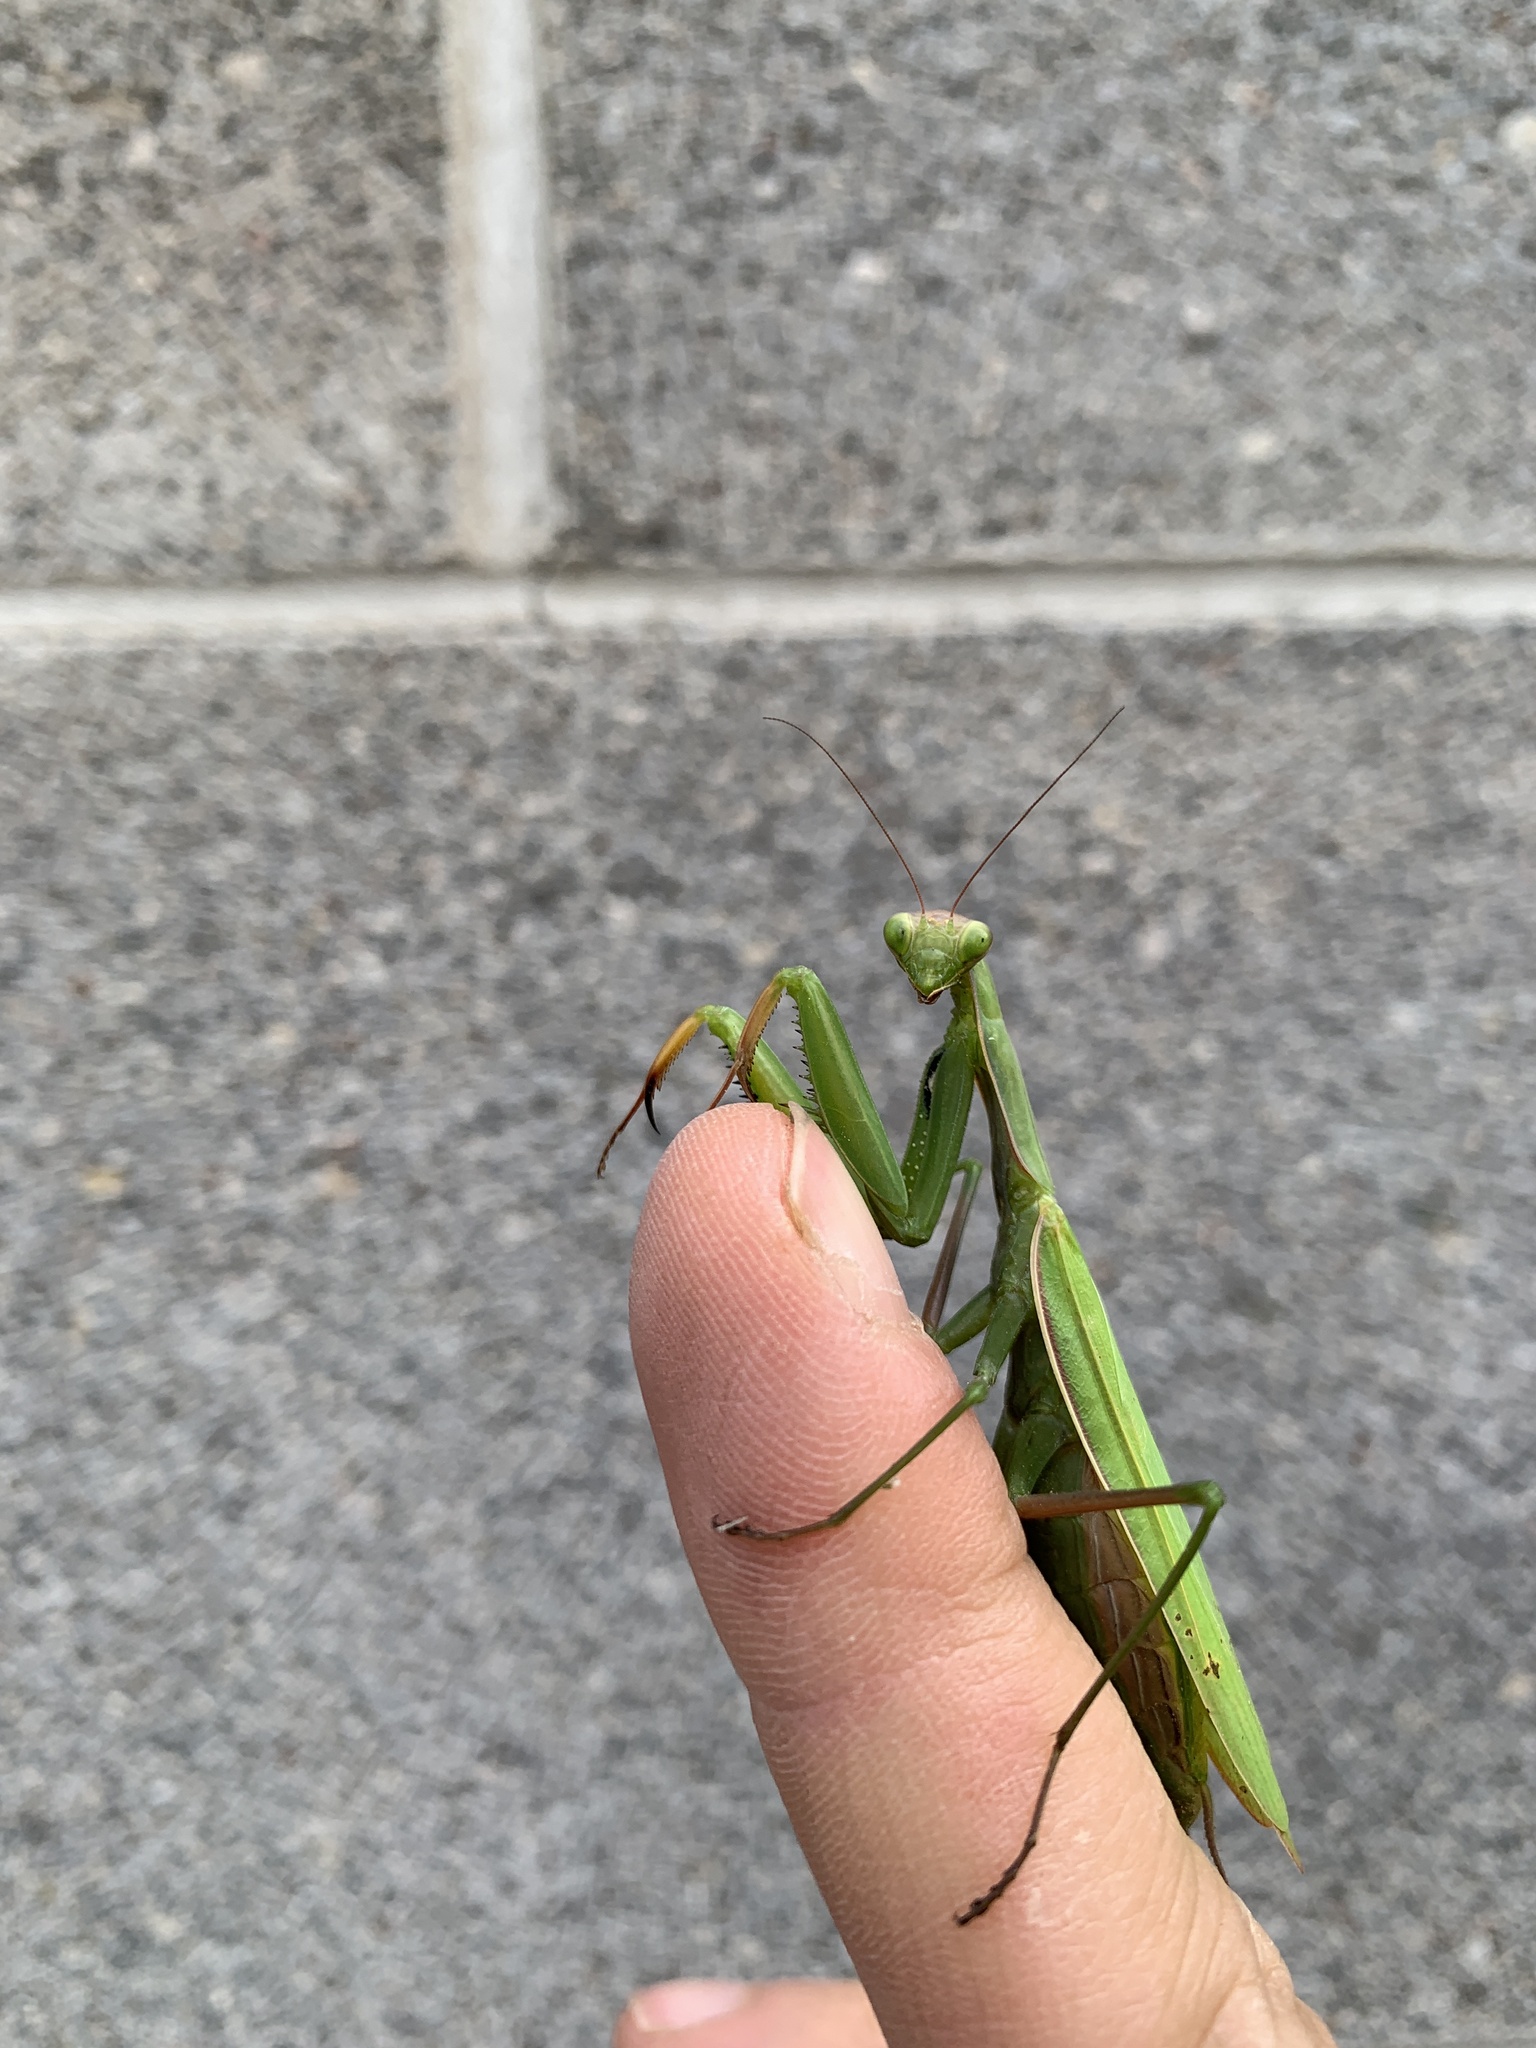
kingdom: Animalia
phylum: Arthropoda
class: Insecta
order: Mantodea
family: Mantidae
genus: Mantis
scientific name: Mantis religiosa
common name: Praying mantis
